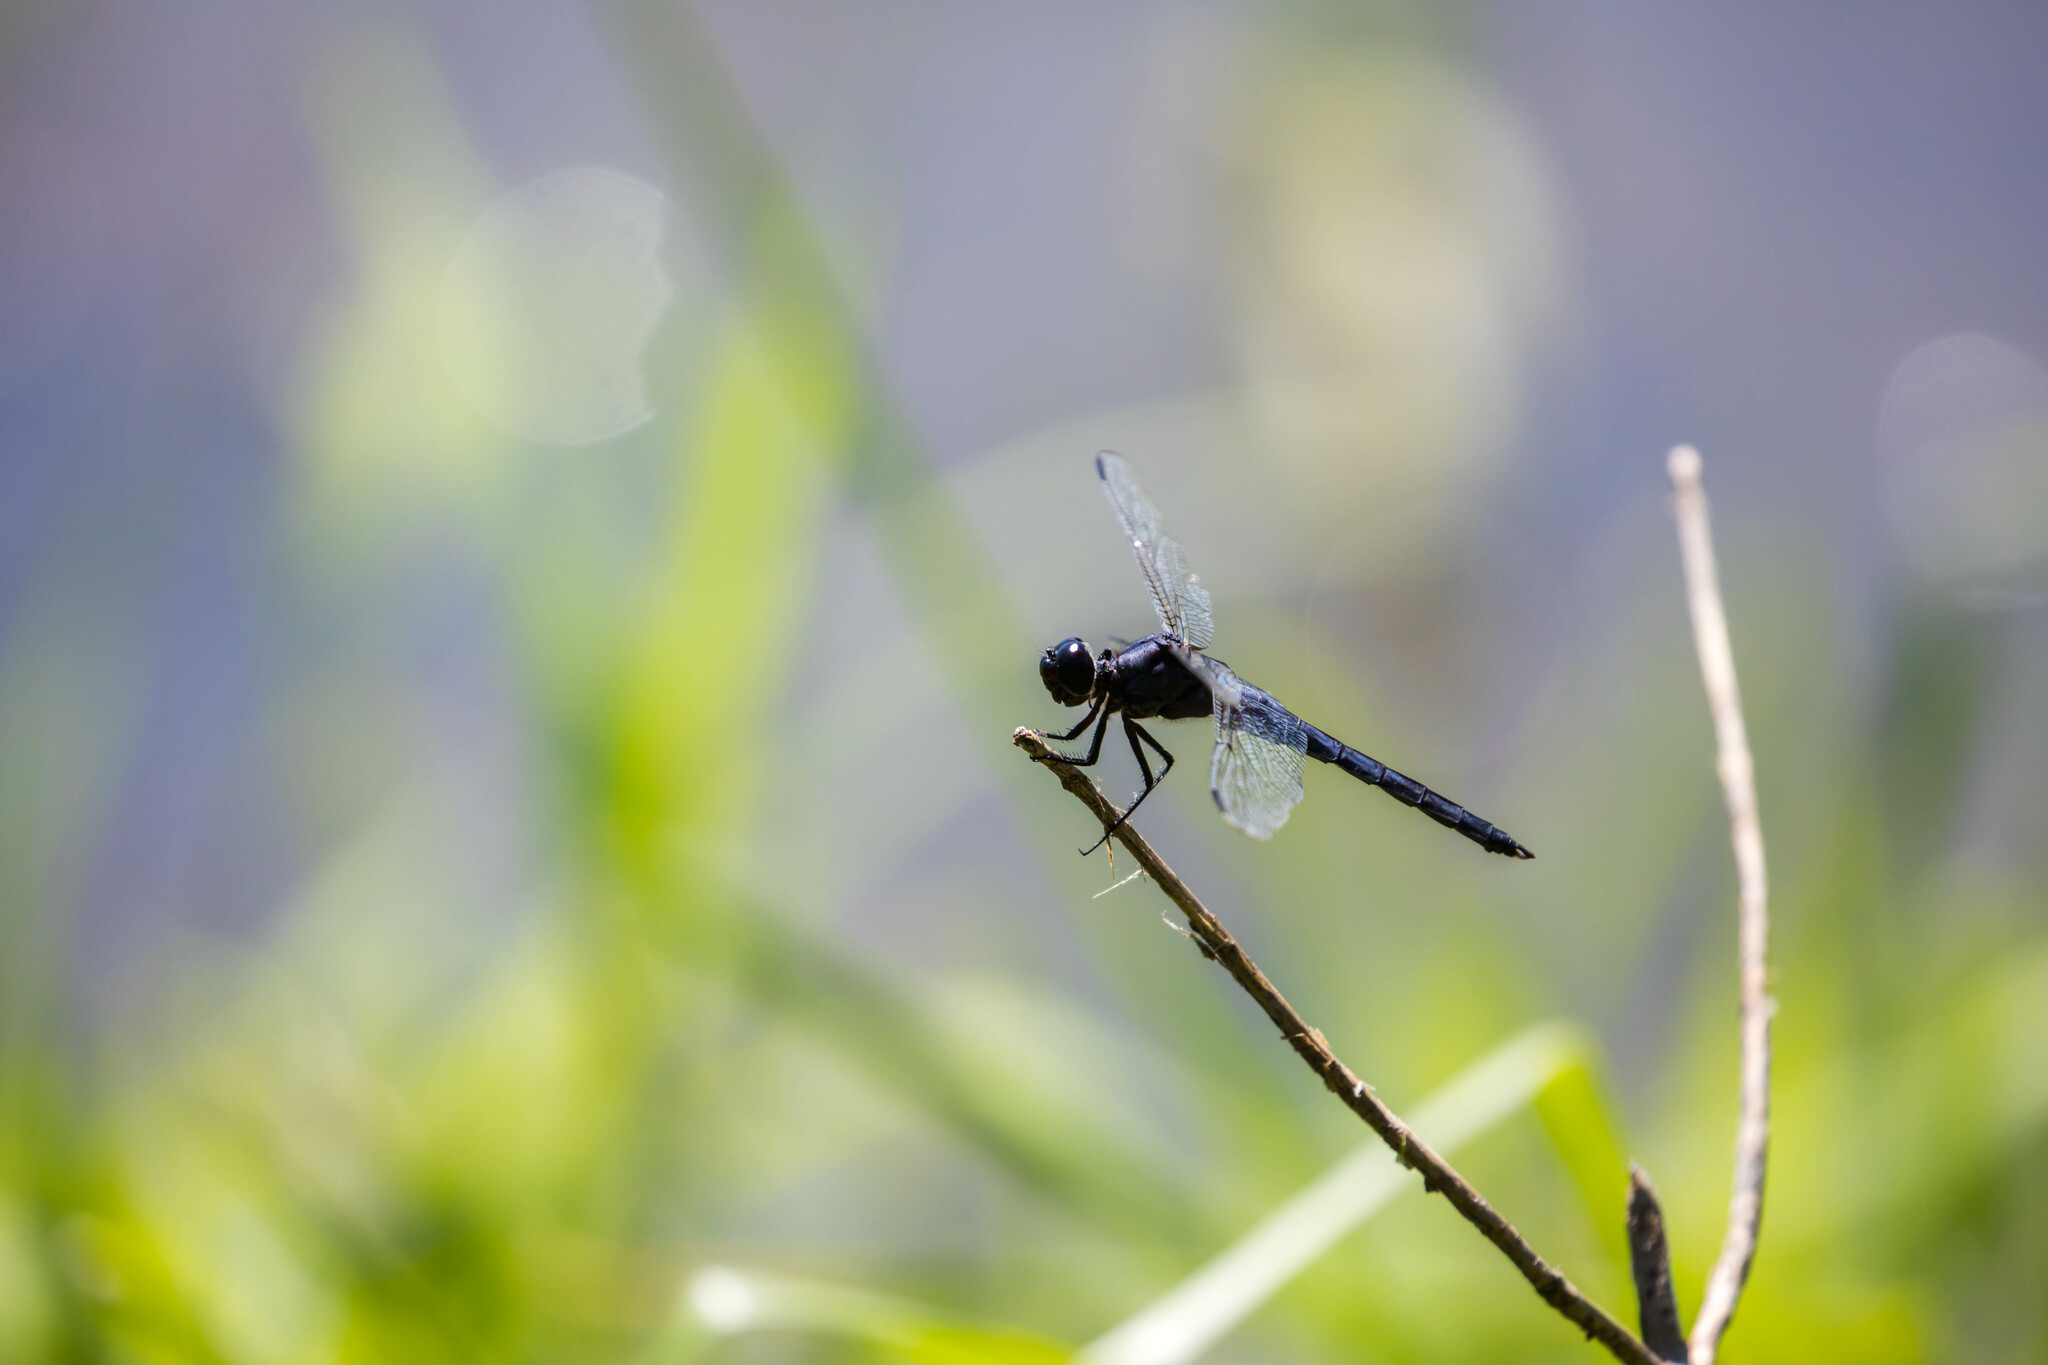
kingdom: Animalia
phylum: Arthropoda
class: Insecta
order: Odonata
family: Libellulidae
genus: Libellula
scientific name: Libellula incesta
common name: Slaty skimmer
